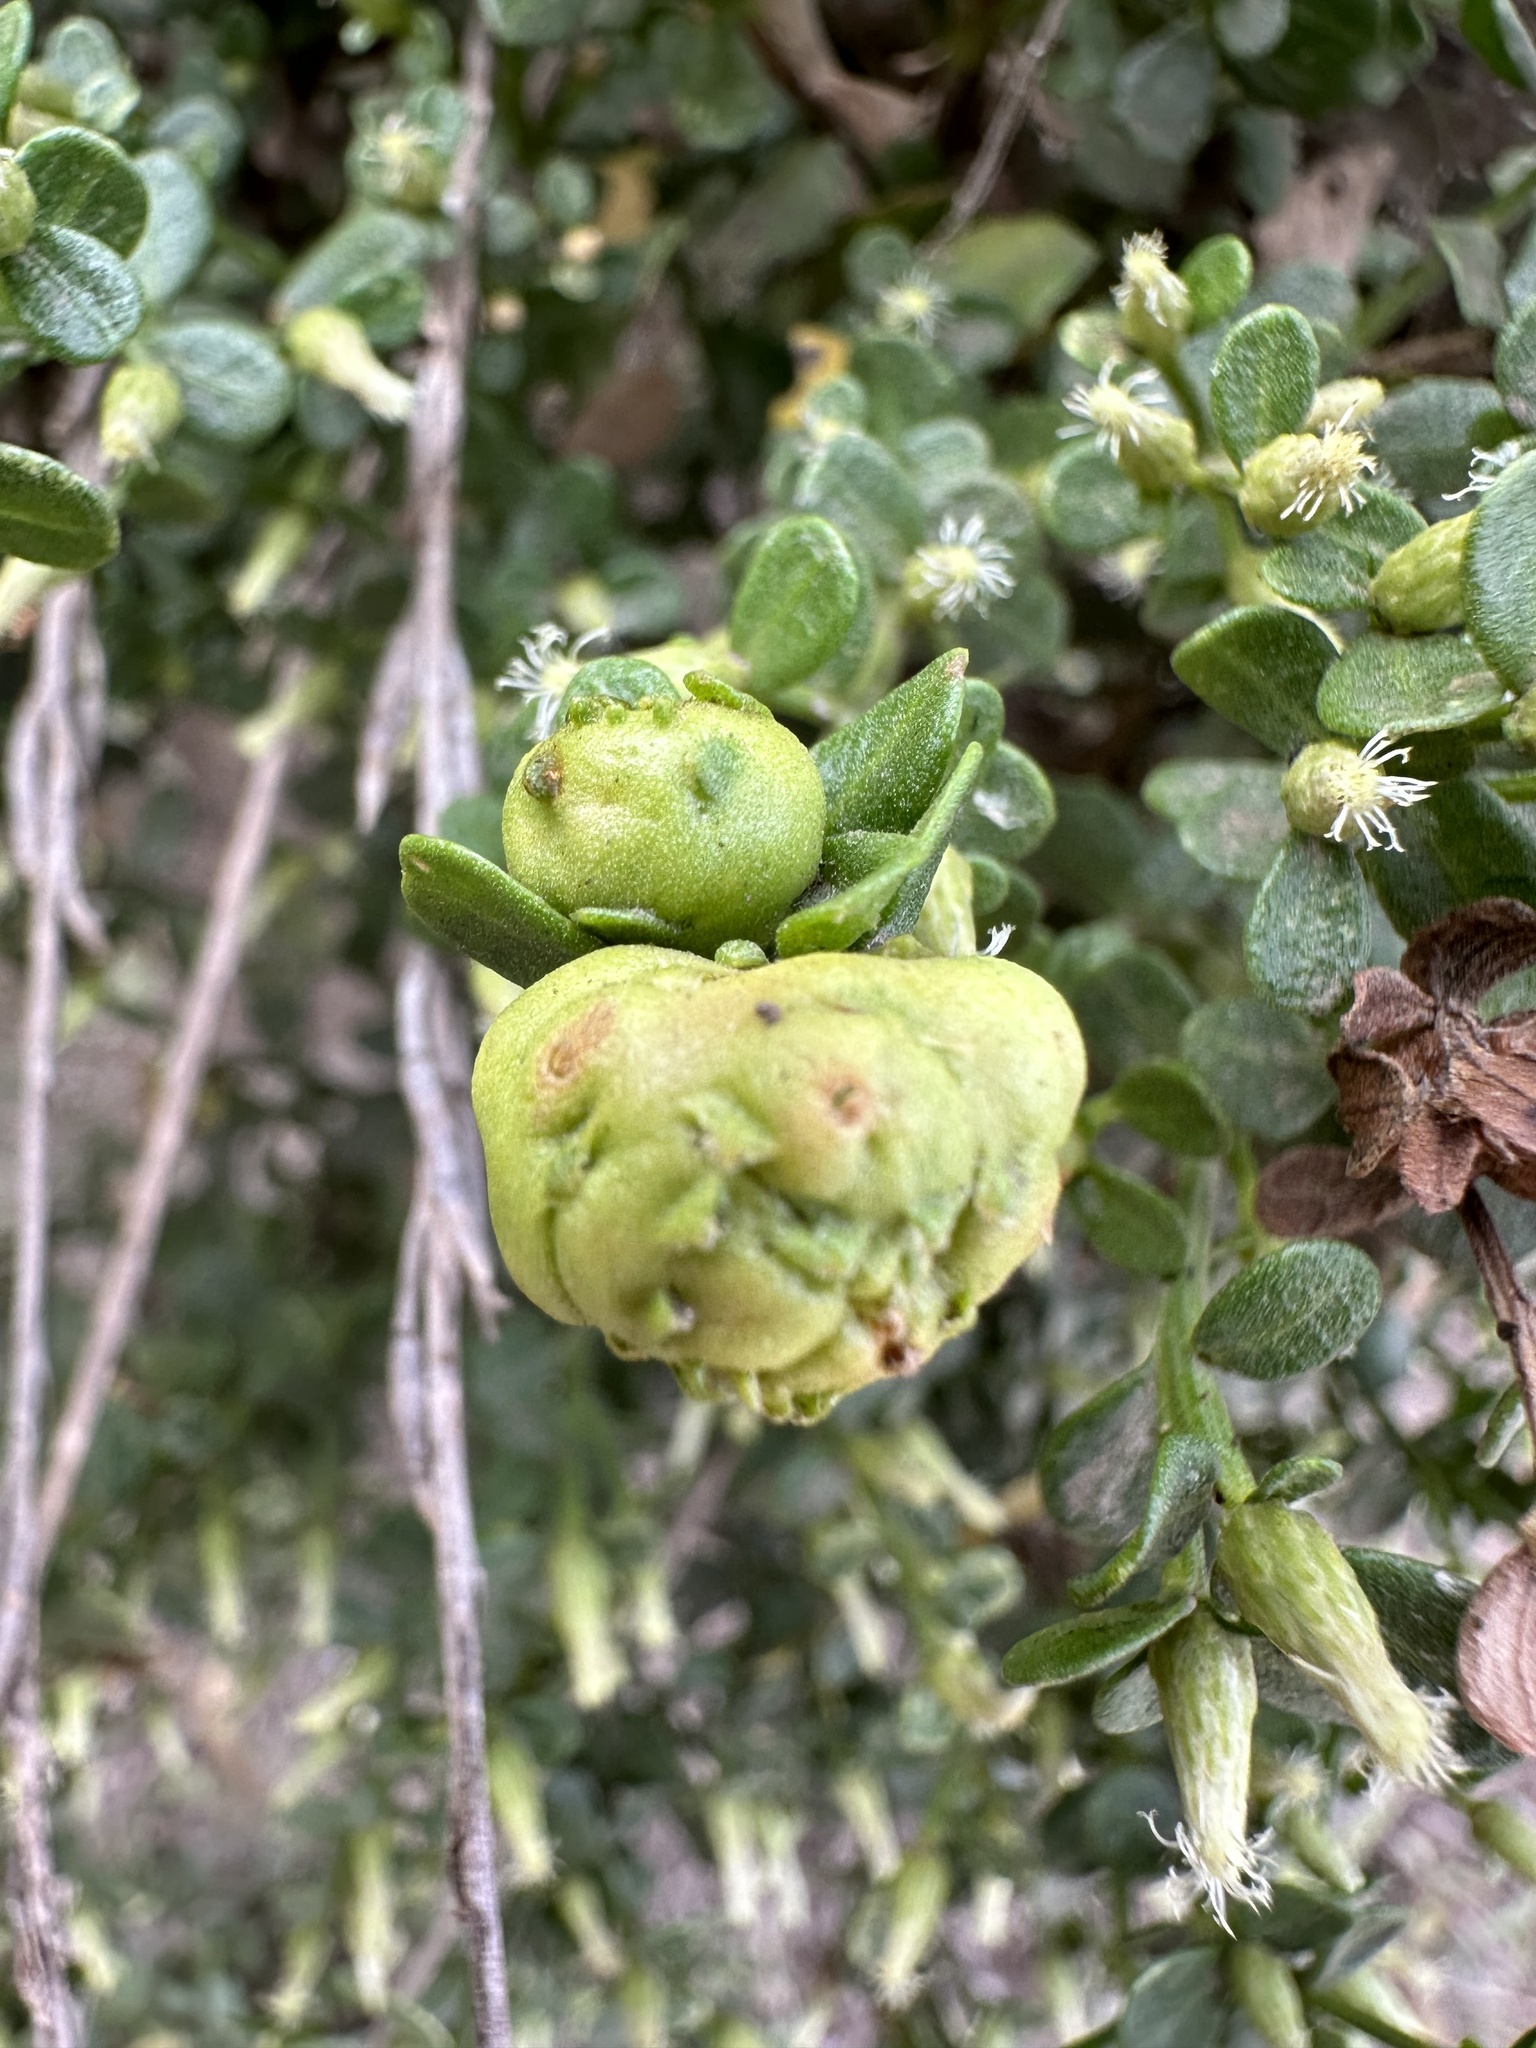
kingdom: Plantae
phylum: Tracheophyta
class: Magnoliopsida
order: Asterales
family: Asteraceae
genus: Baccharis
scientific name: Baccharis pilularis
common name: Coyotebrush
